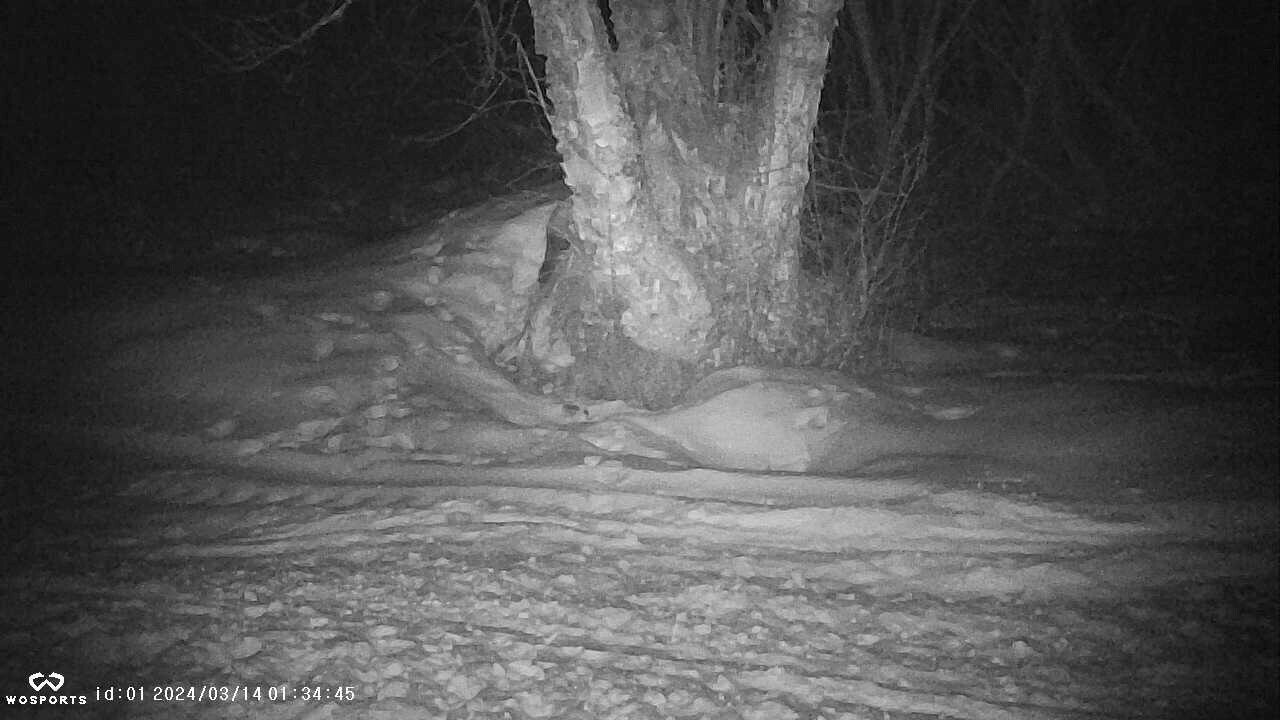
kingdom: Animalia
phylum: Chordata
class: Mammalia
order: Carnivora
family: Mustelidae
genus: Martes
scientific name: Martes americana
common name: American marten
